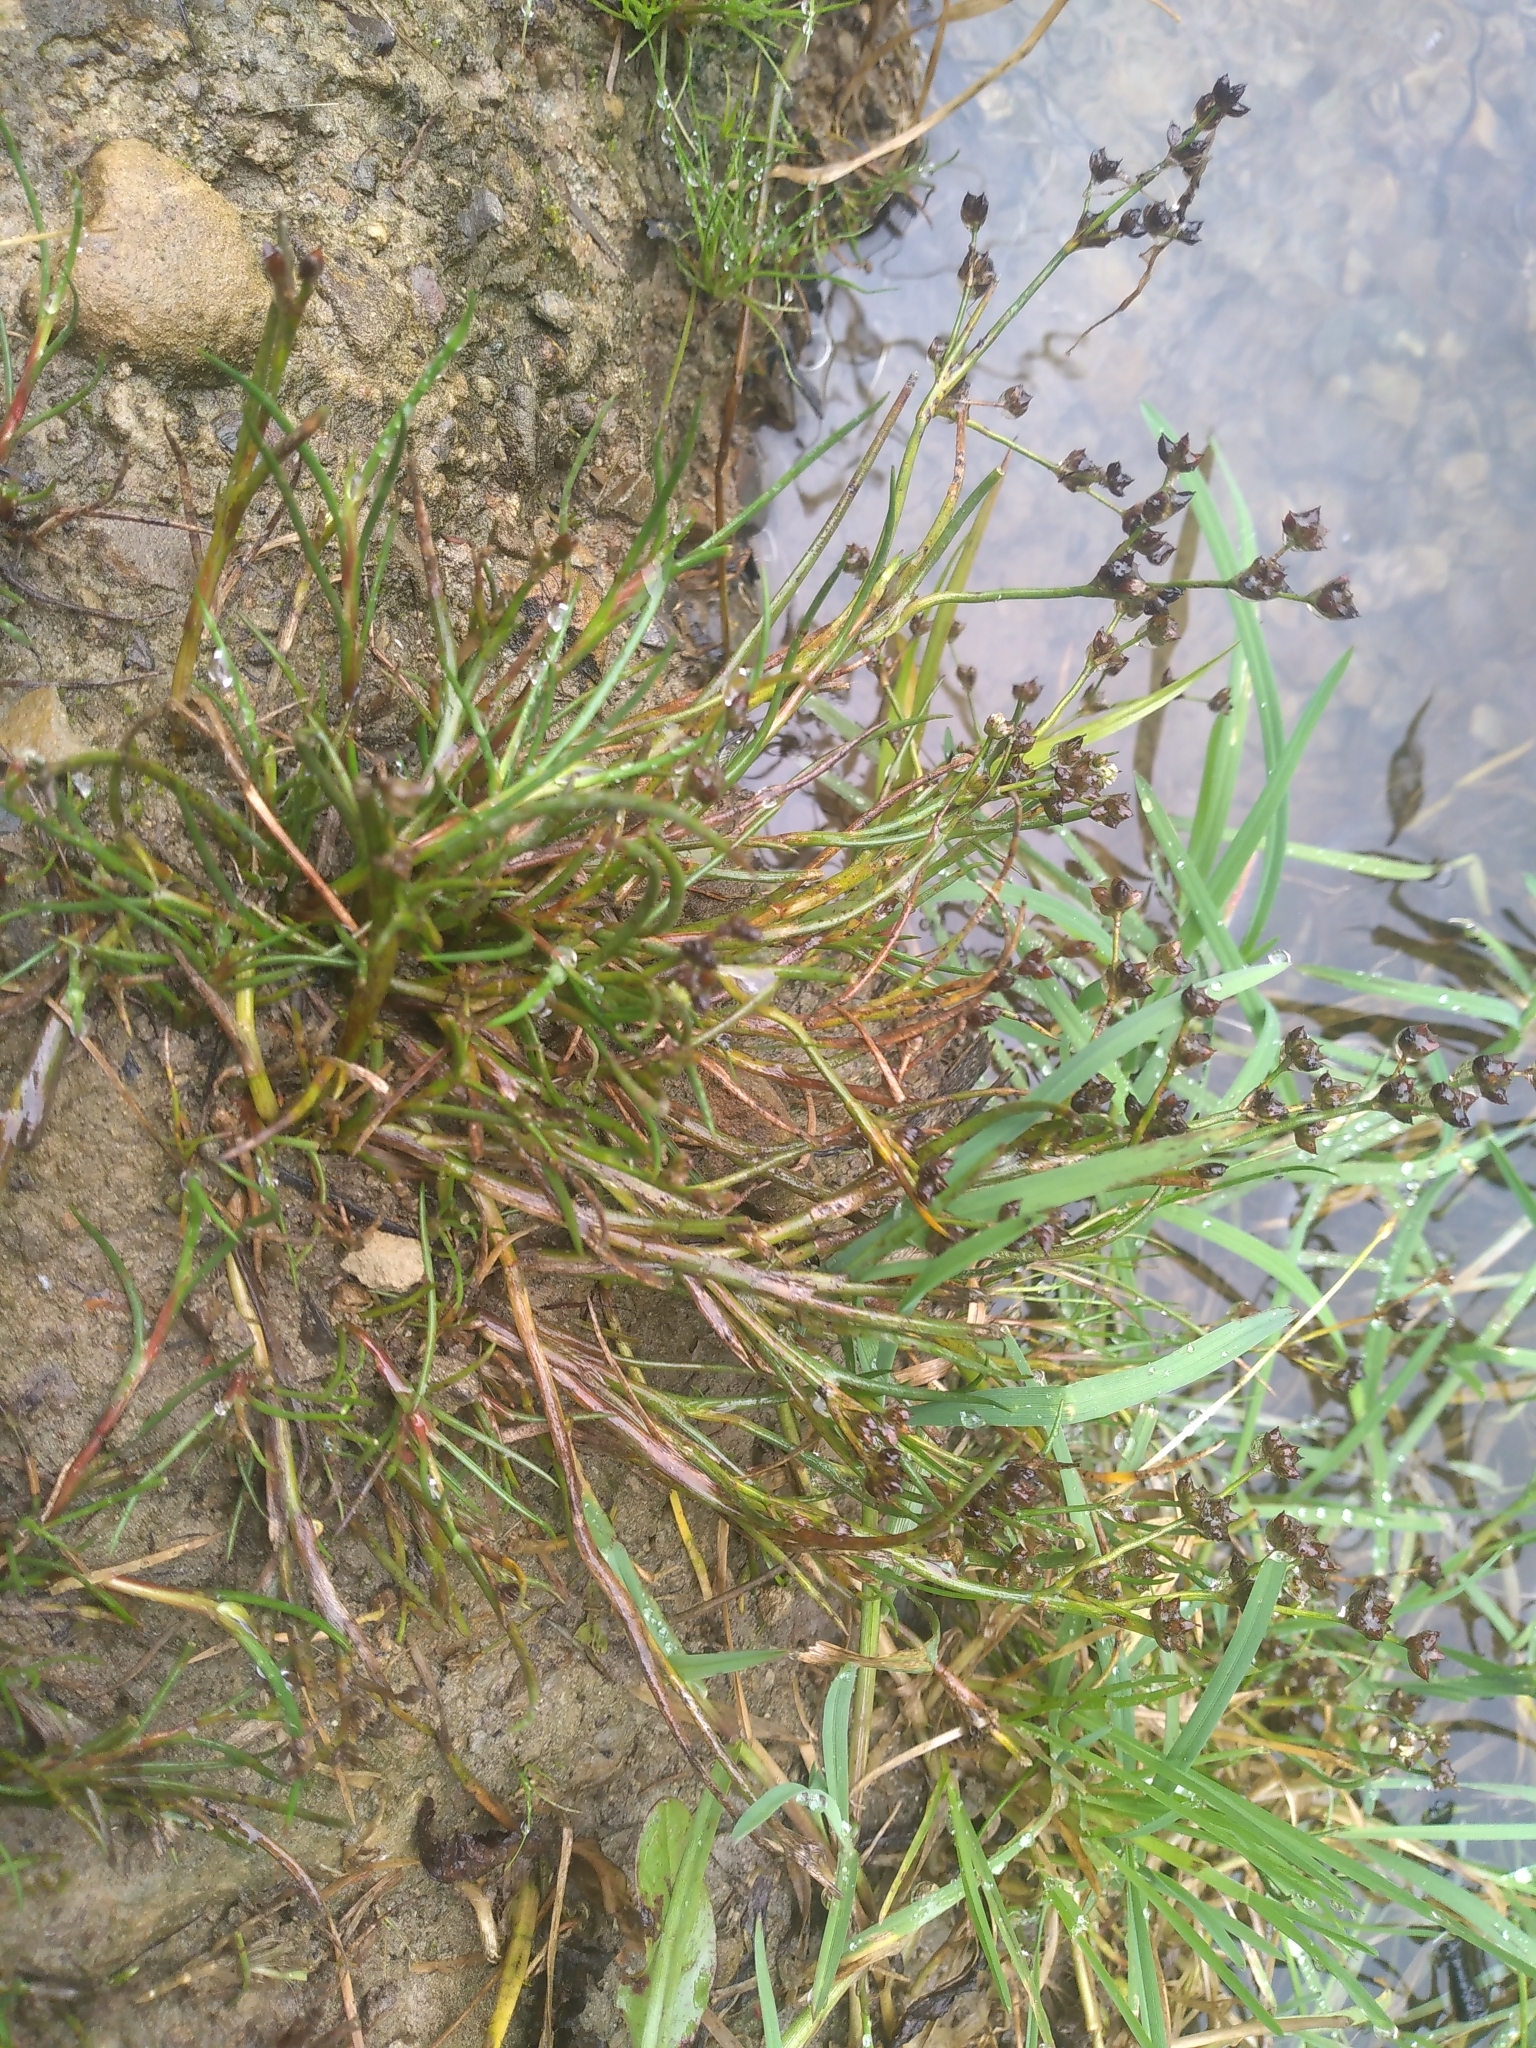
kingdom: Plantae
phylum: Tracheophyta
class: Liliopsida
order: Poales
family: Juncaceae
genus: Juncus
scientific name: Juncus articulatus
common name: Jointed rush
